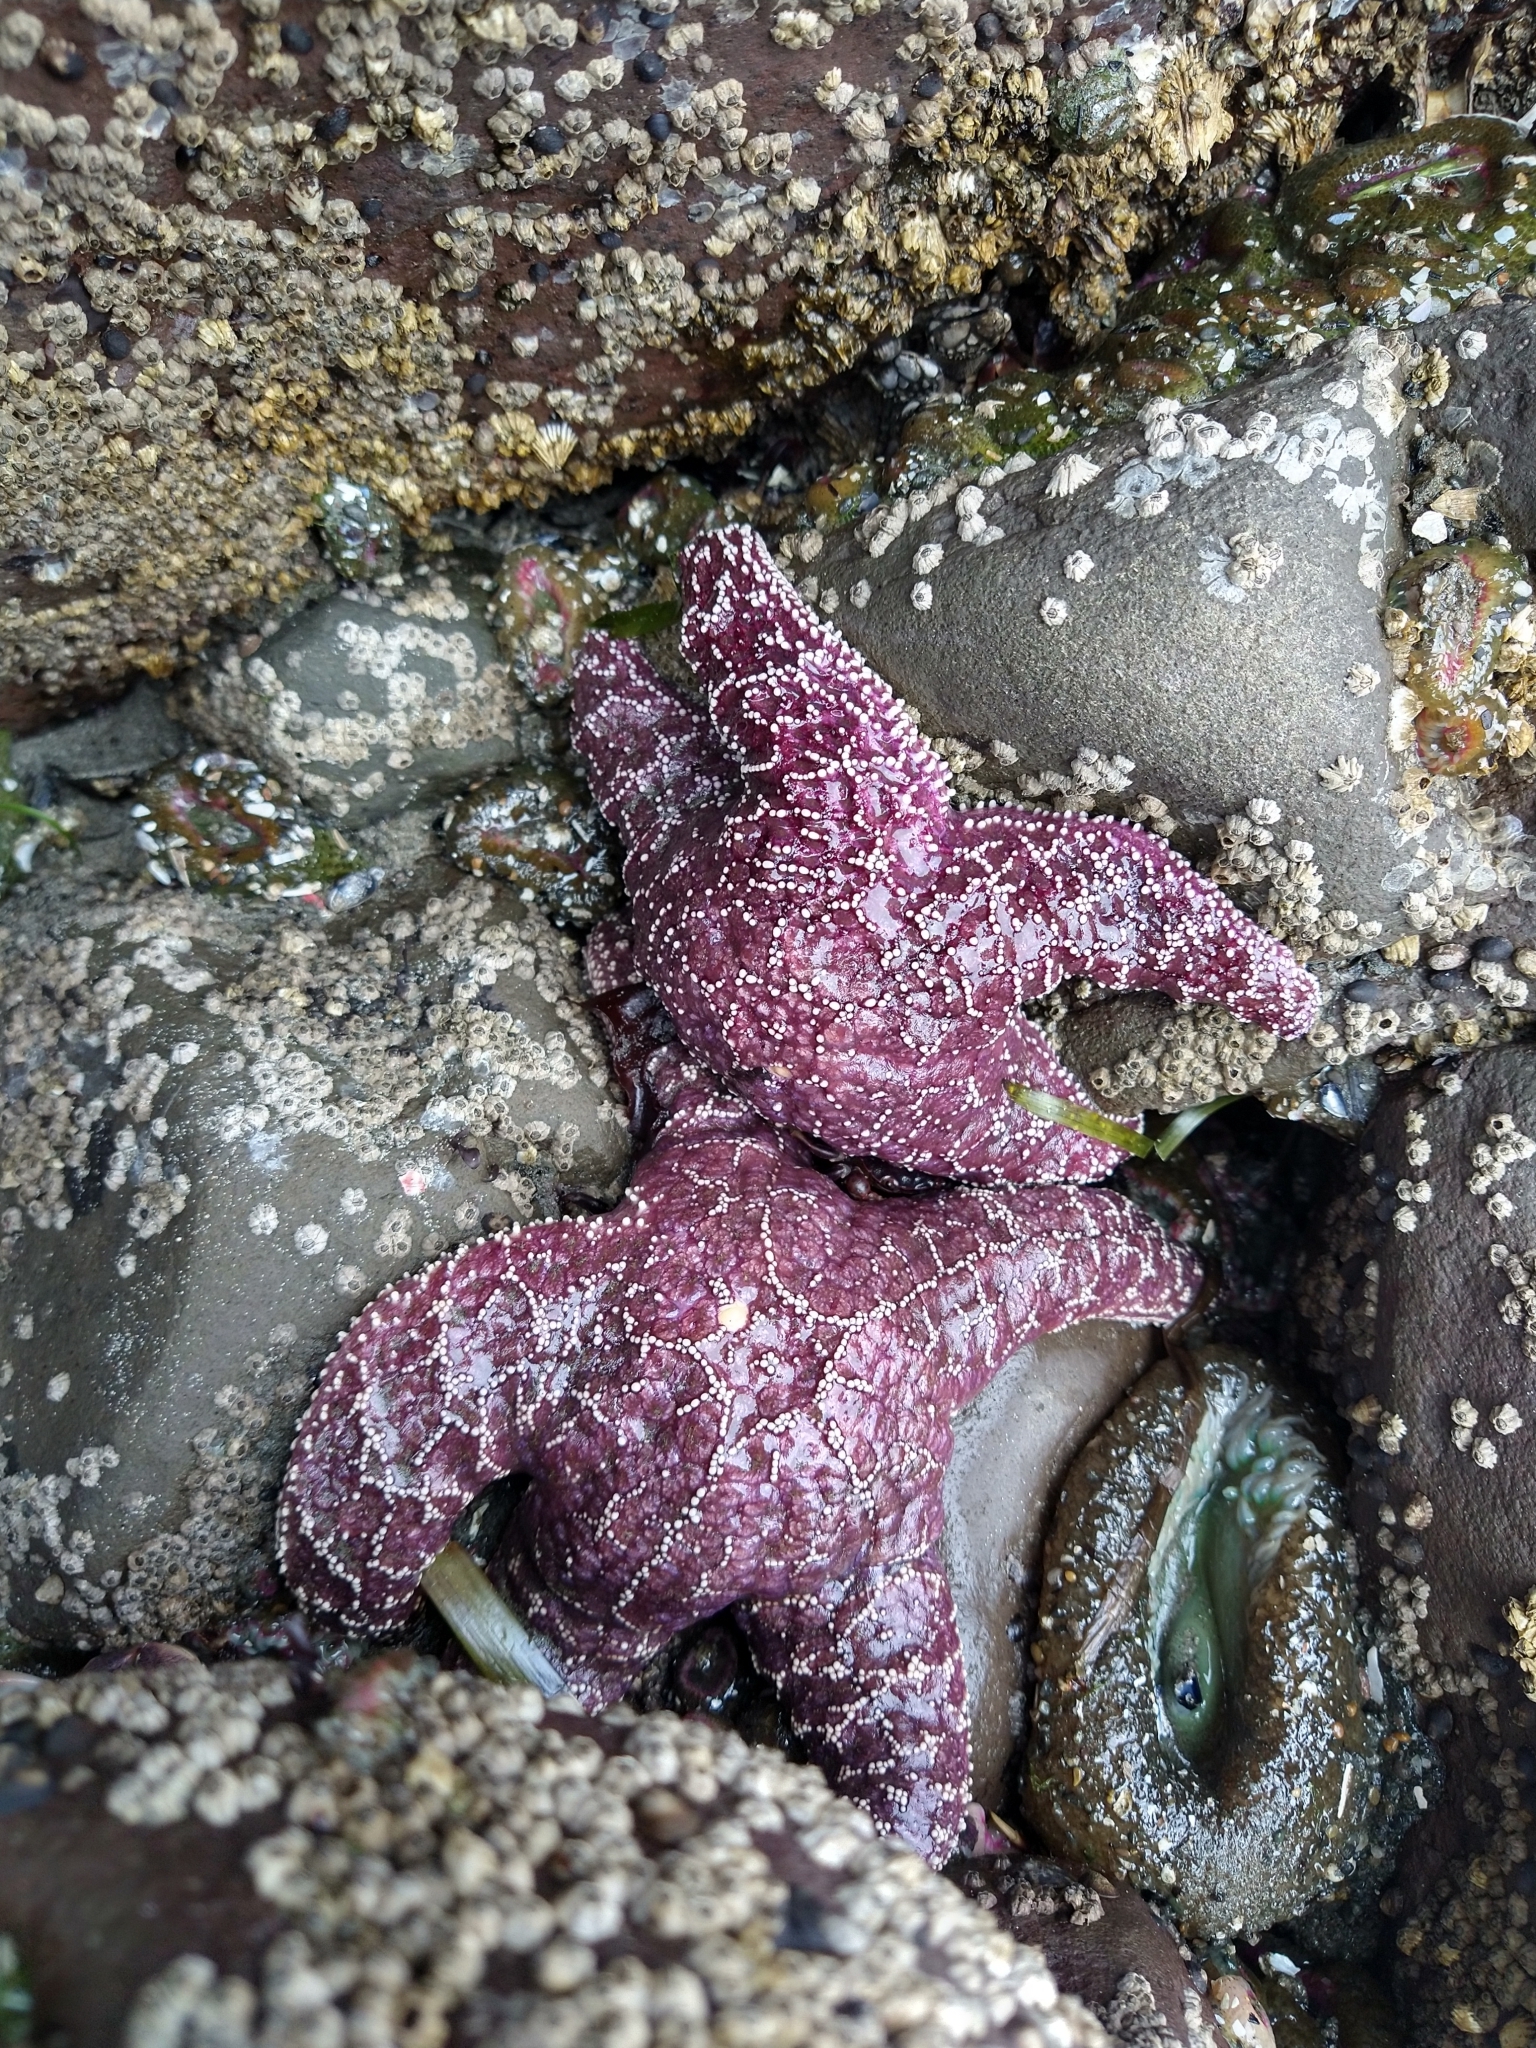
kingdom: Animalia
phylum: Echinodermata
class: Asteroidea
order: Forcipulatida
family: Asteriidae
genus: Pisaster
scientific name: Pisaster ochraceus
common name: Ochre stars
